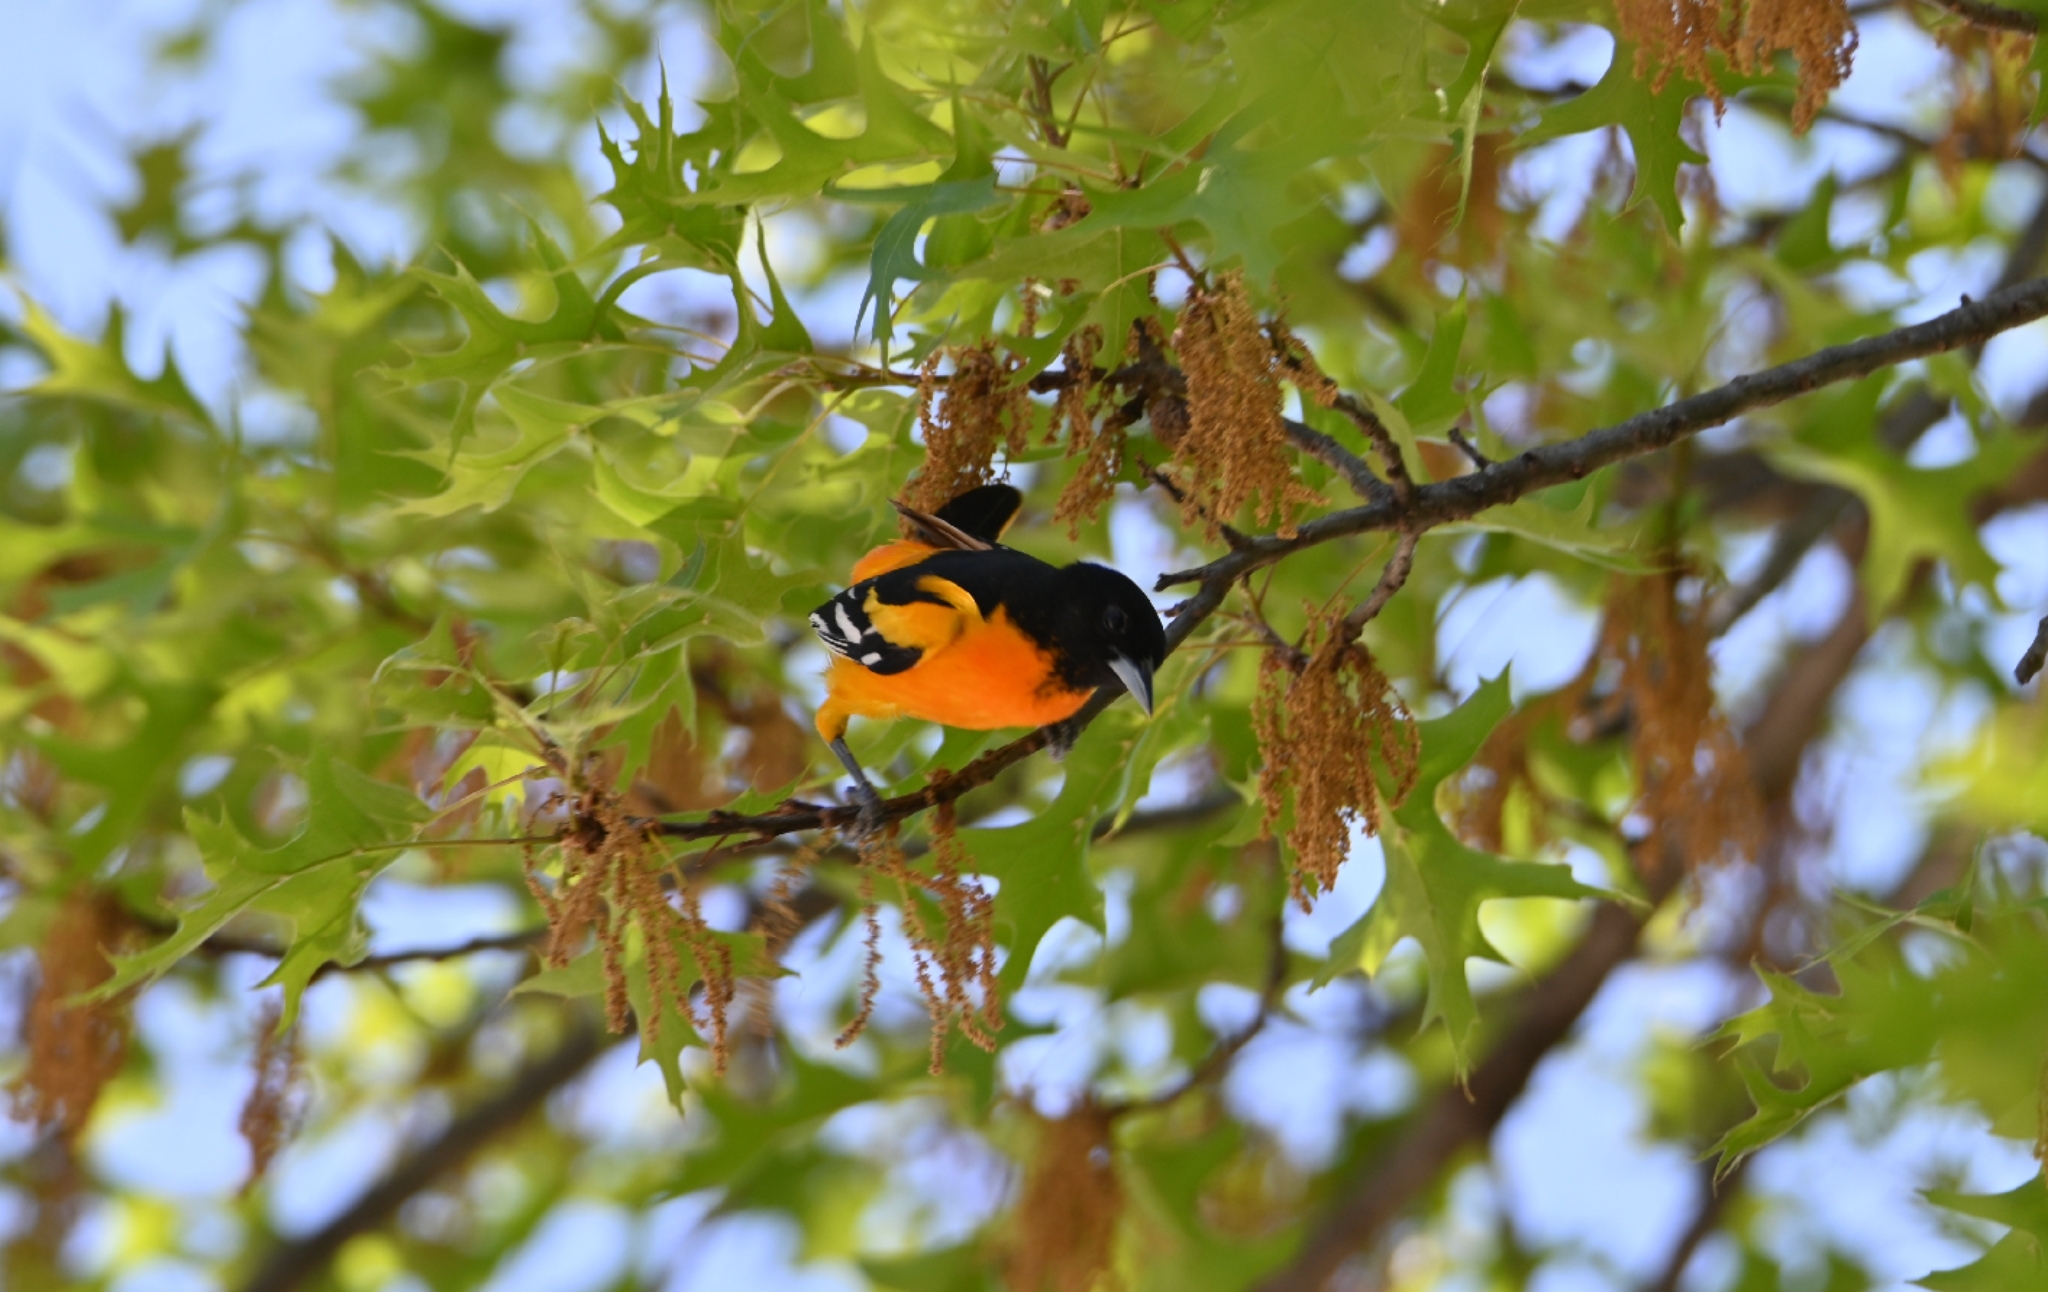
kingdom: Animalia
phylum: Chordata
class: Aves
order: Passeriformes
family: Icteridae
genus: Icterus
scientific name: Icterus galbula
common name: Baltimore oriole
